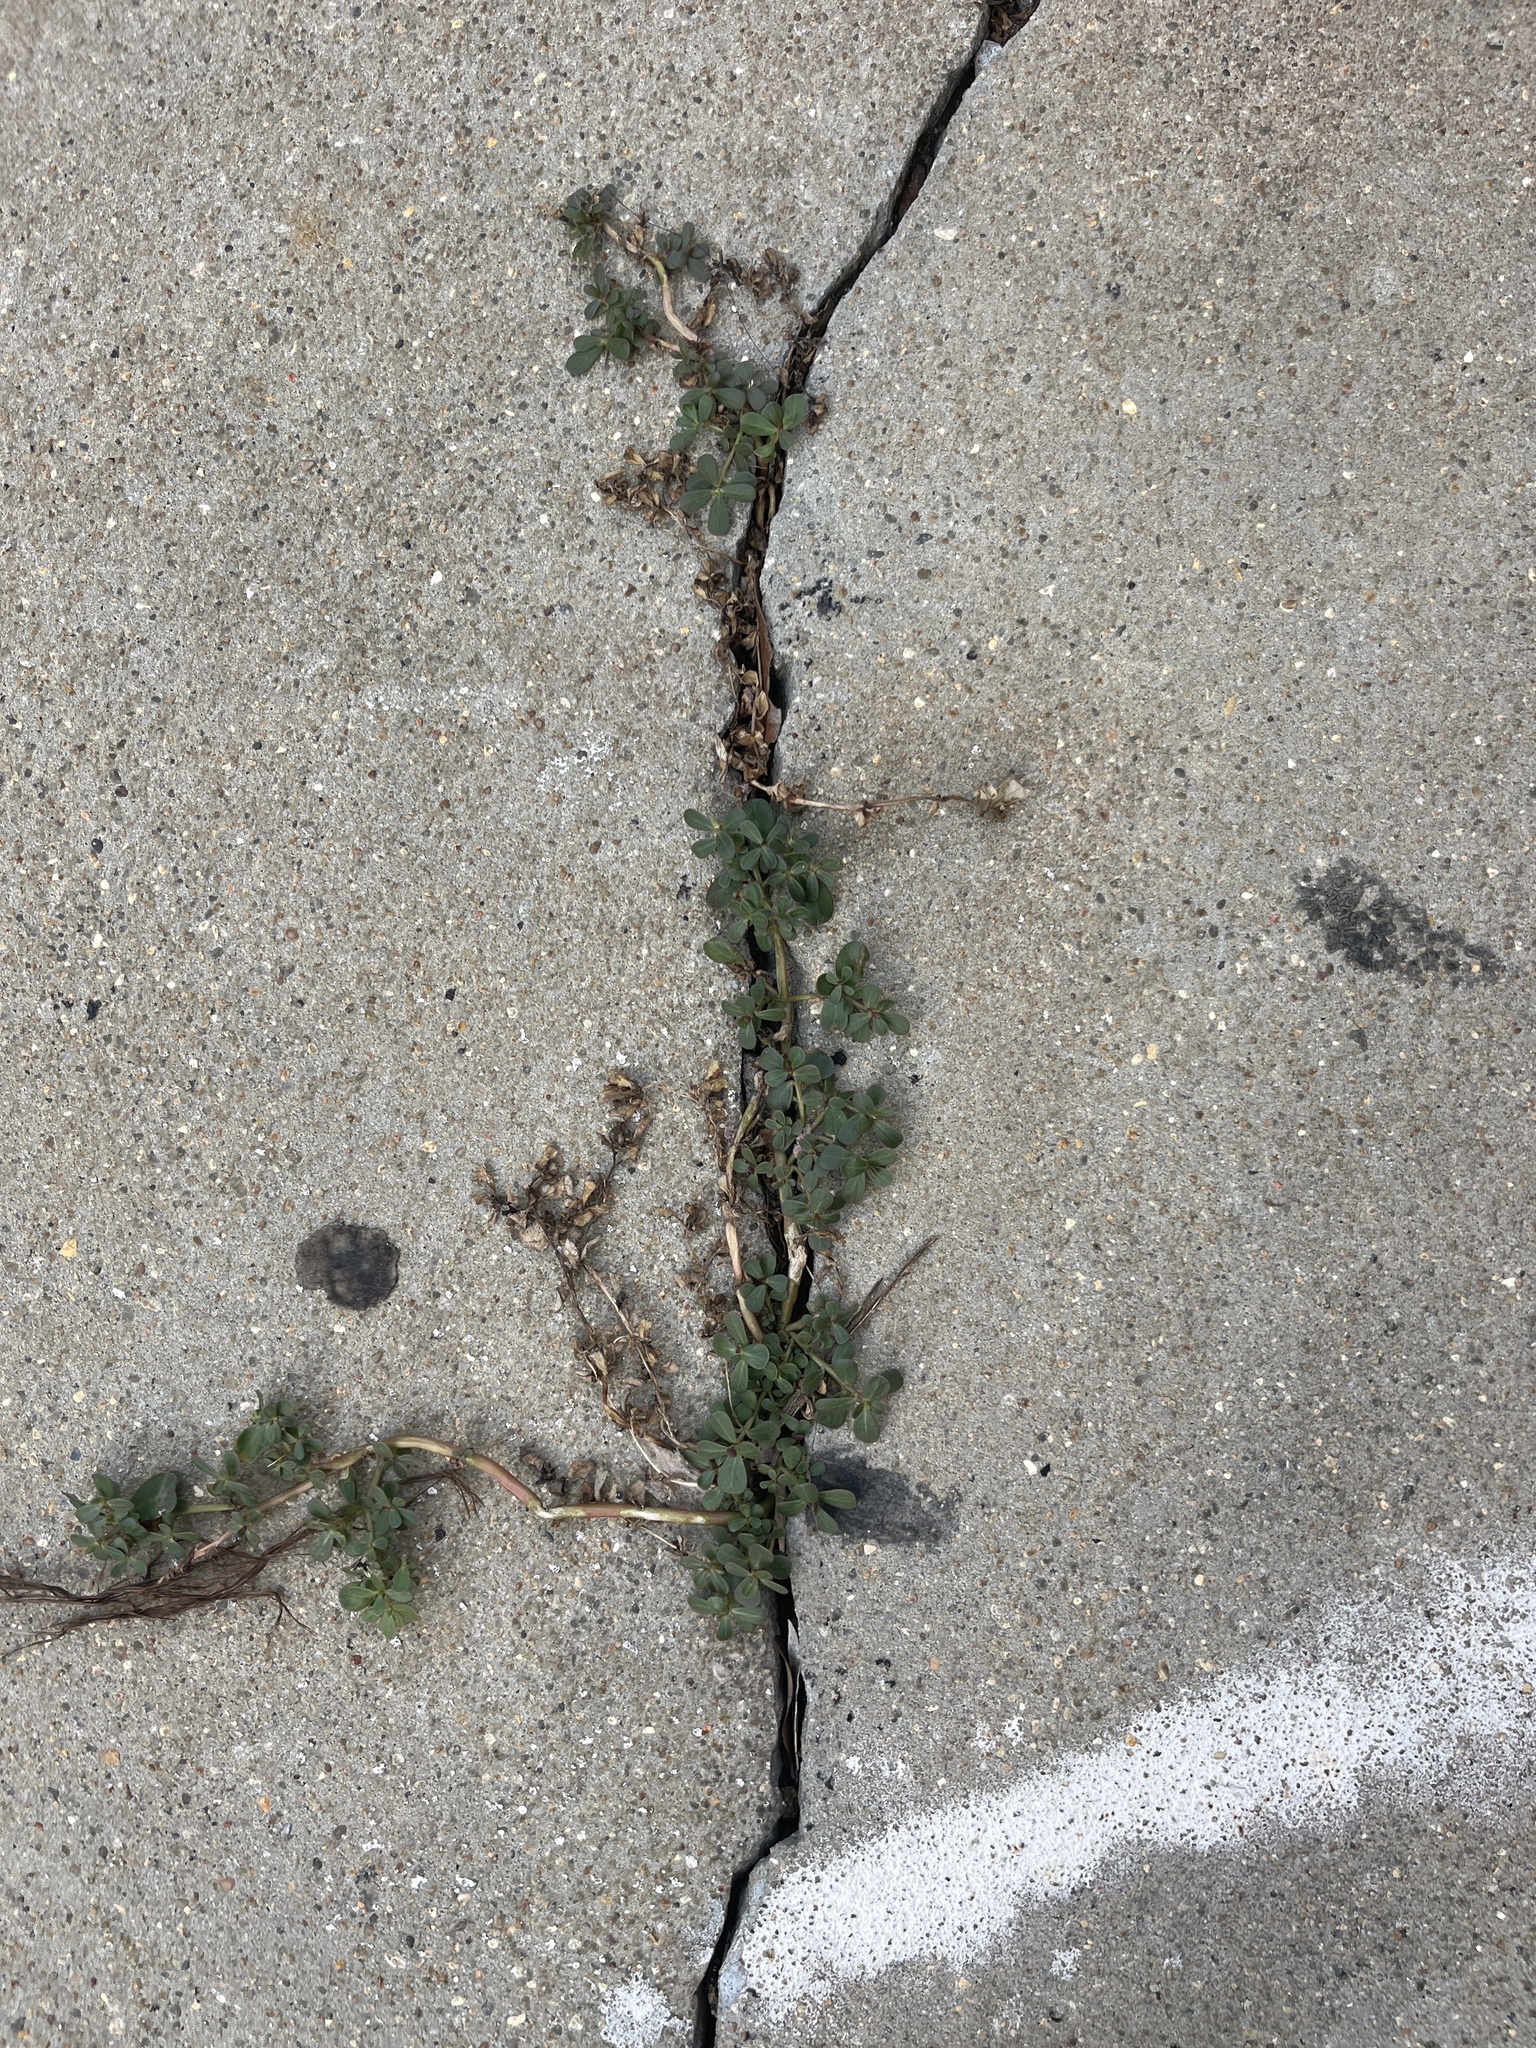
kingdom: Plantae
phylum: Tracheophyta
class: Magnoliopsida
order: Caryophyllales
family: Portulacaceae
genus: Portulaca
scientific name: Portulaca oleracea
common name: Common purslane
